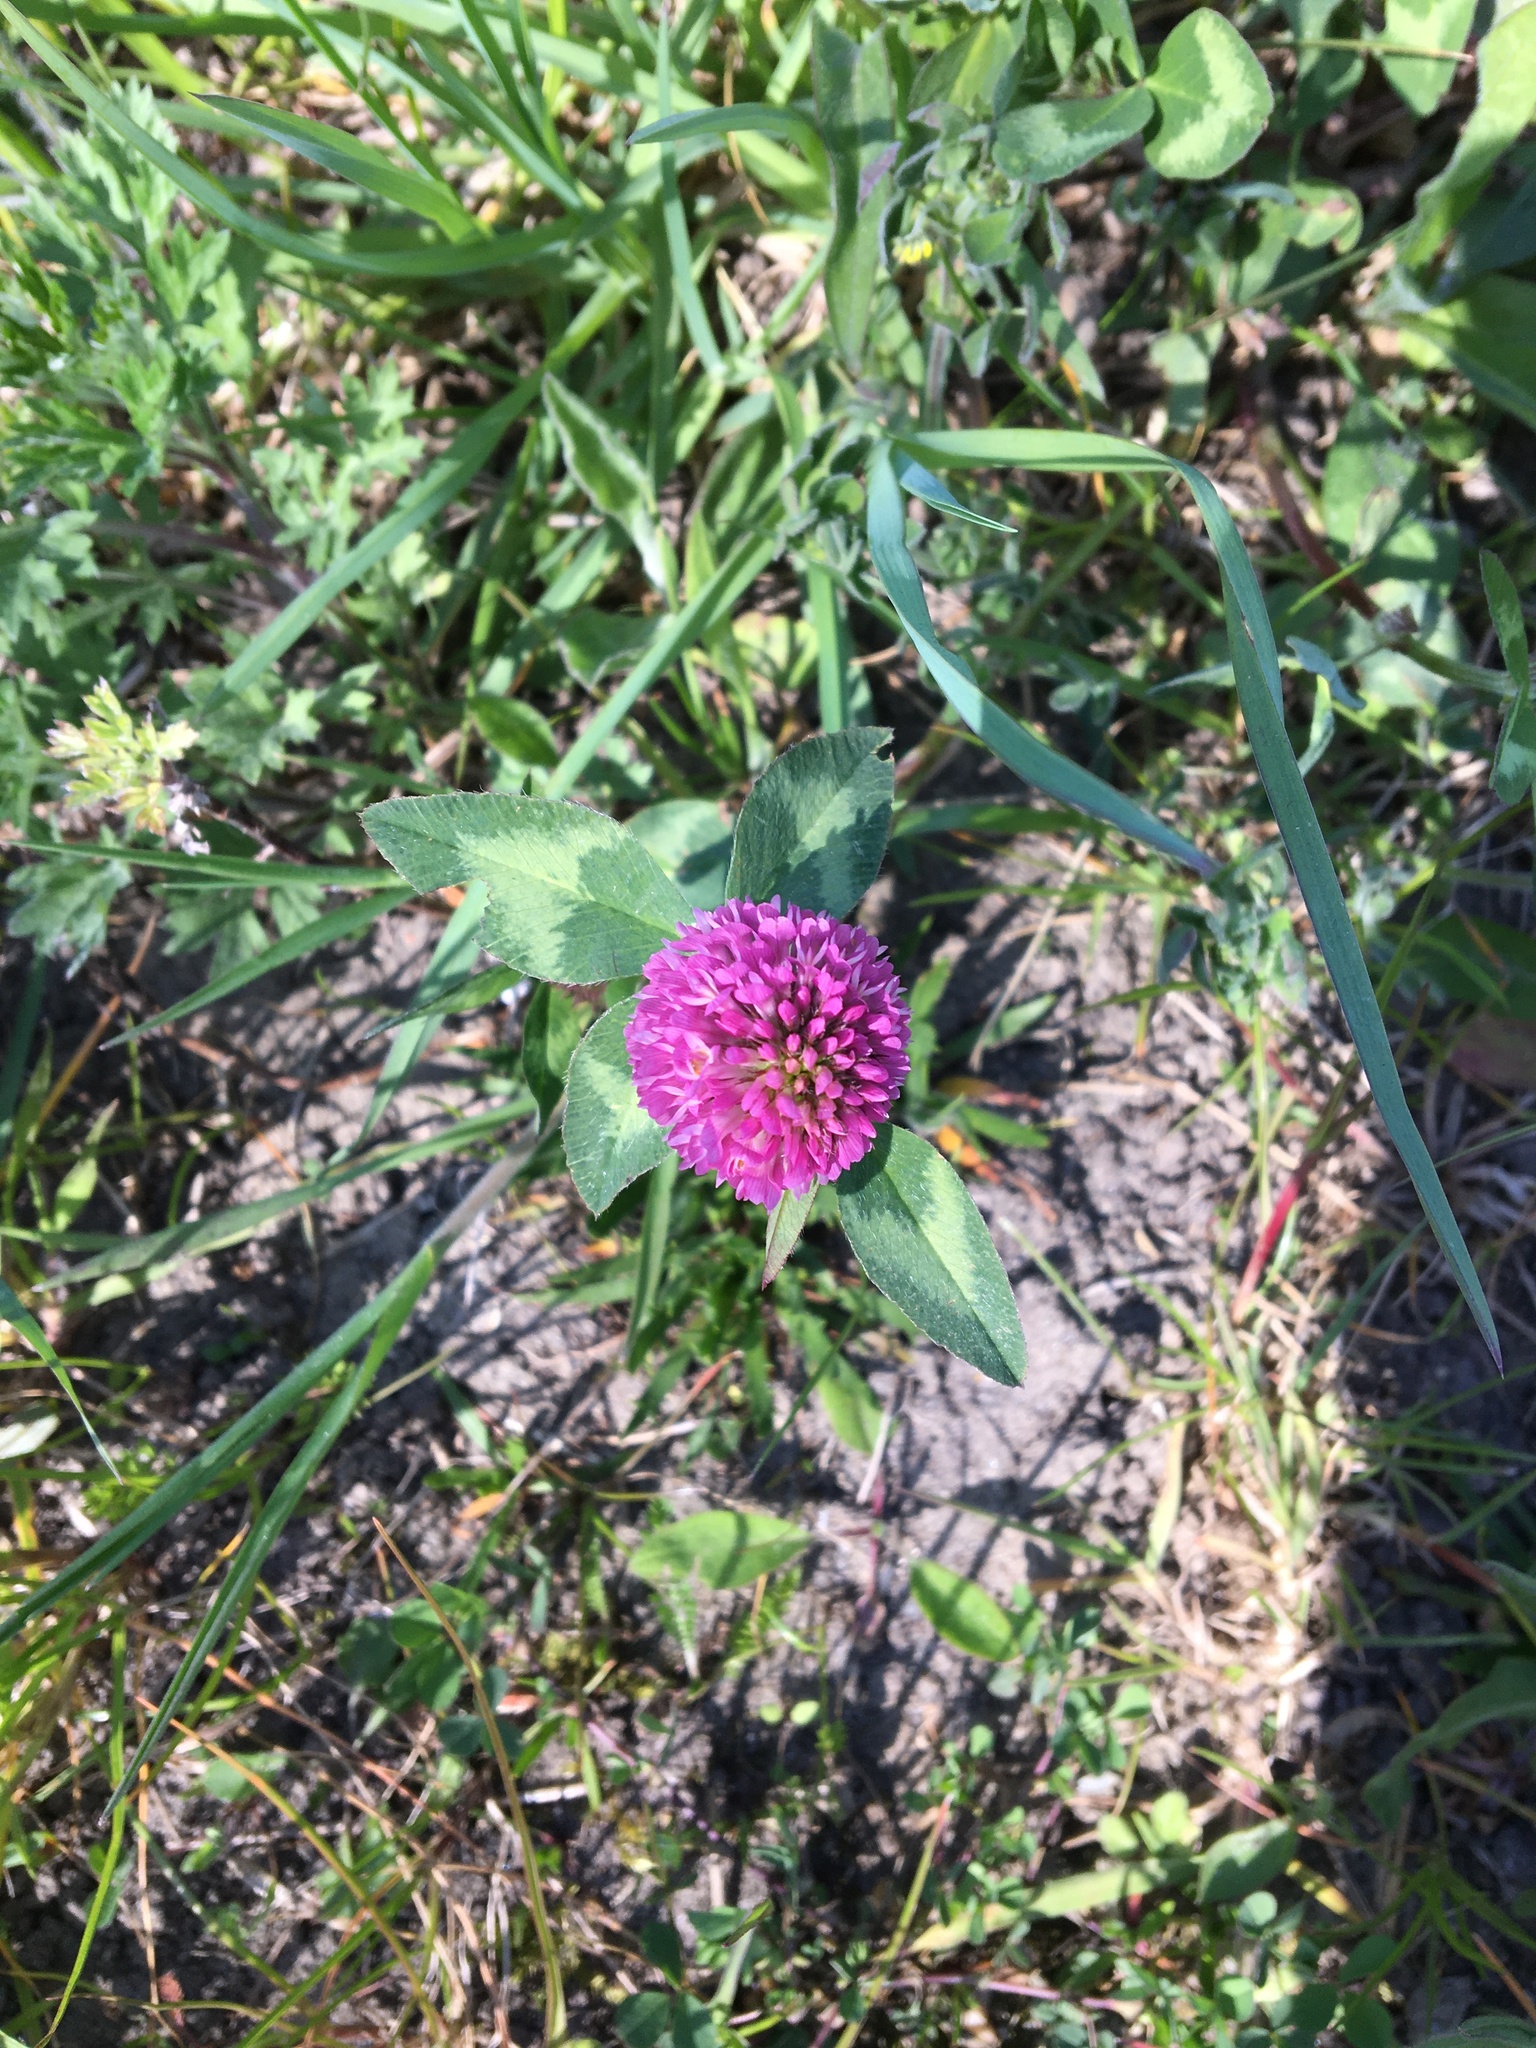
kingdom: Plantae
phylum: Tracheophyta
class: Magnoliopsida
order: Fabales
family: Fabaceae
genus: Trifolium
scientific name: Trifolium pratense
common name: Red clover
